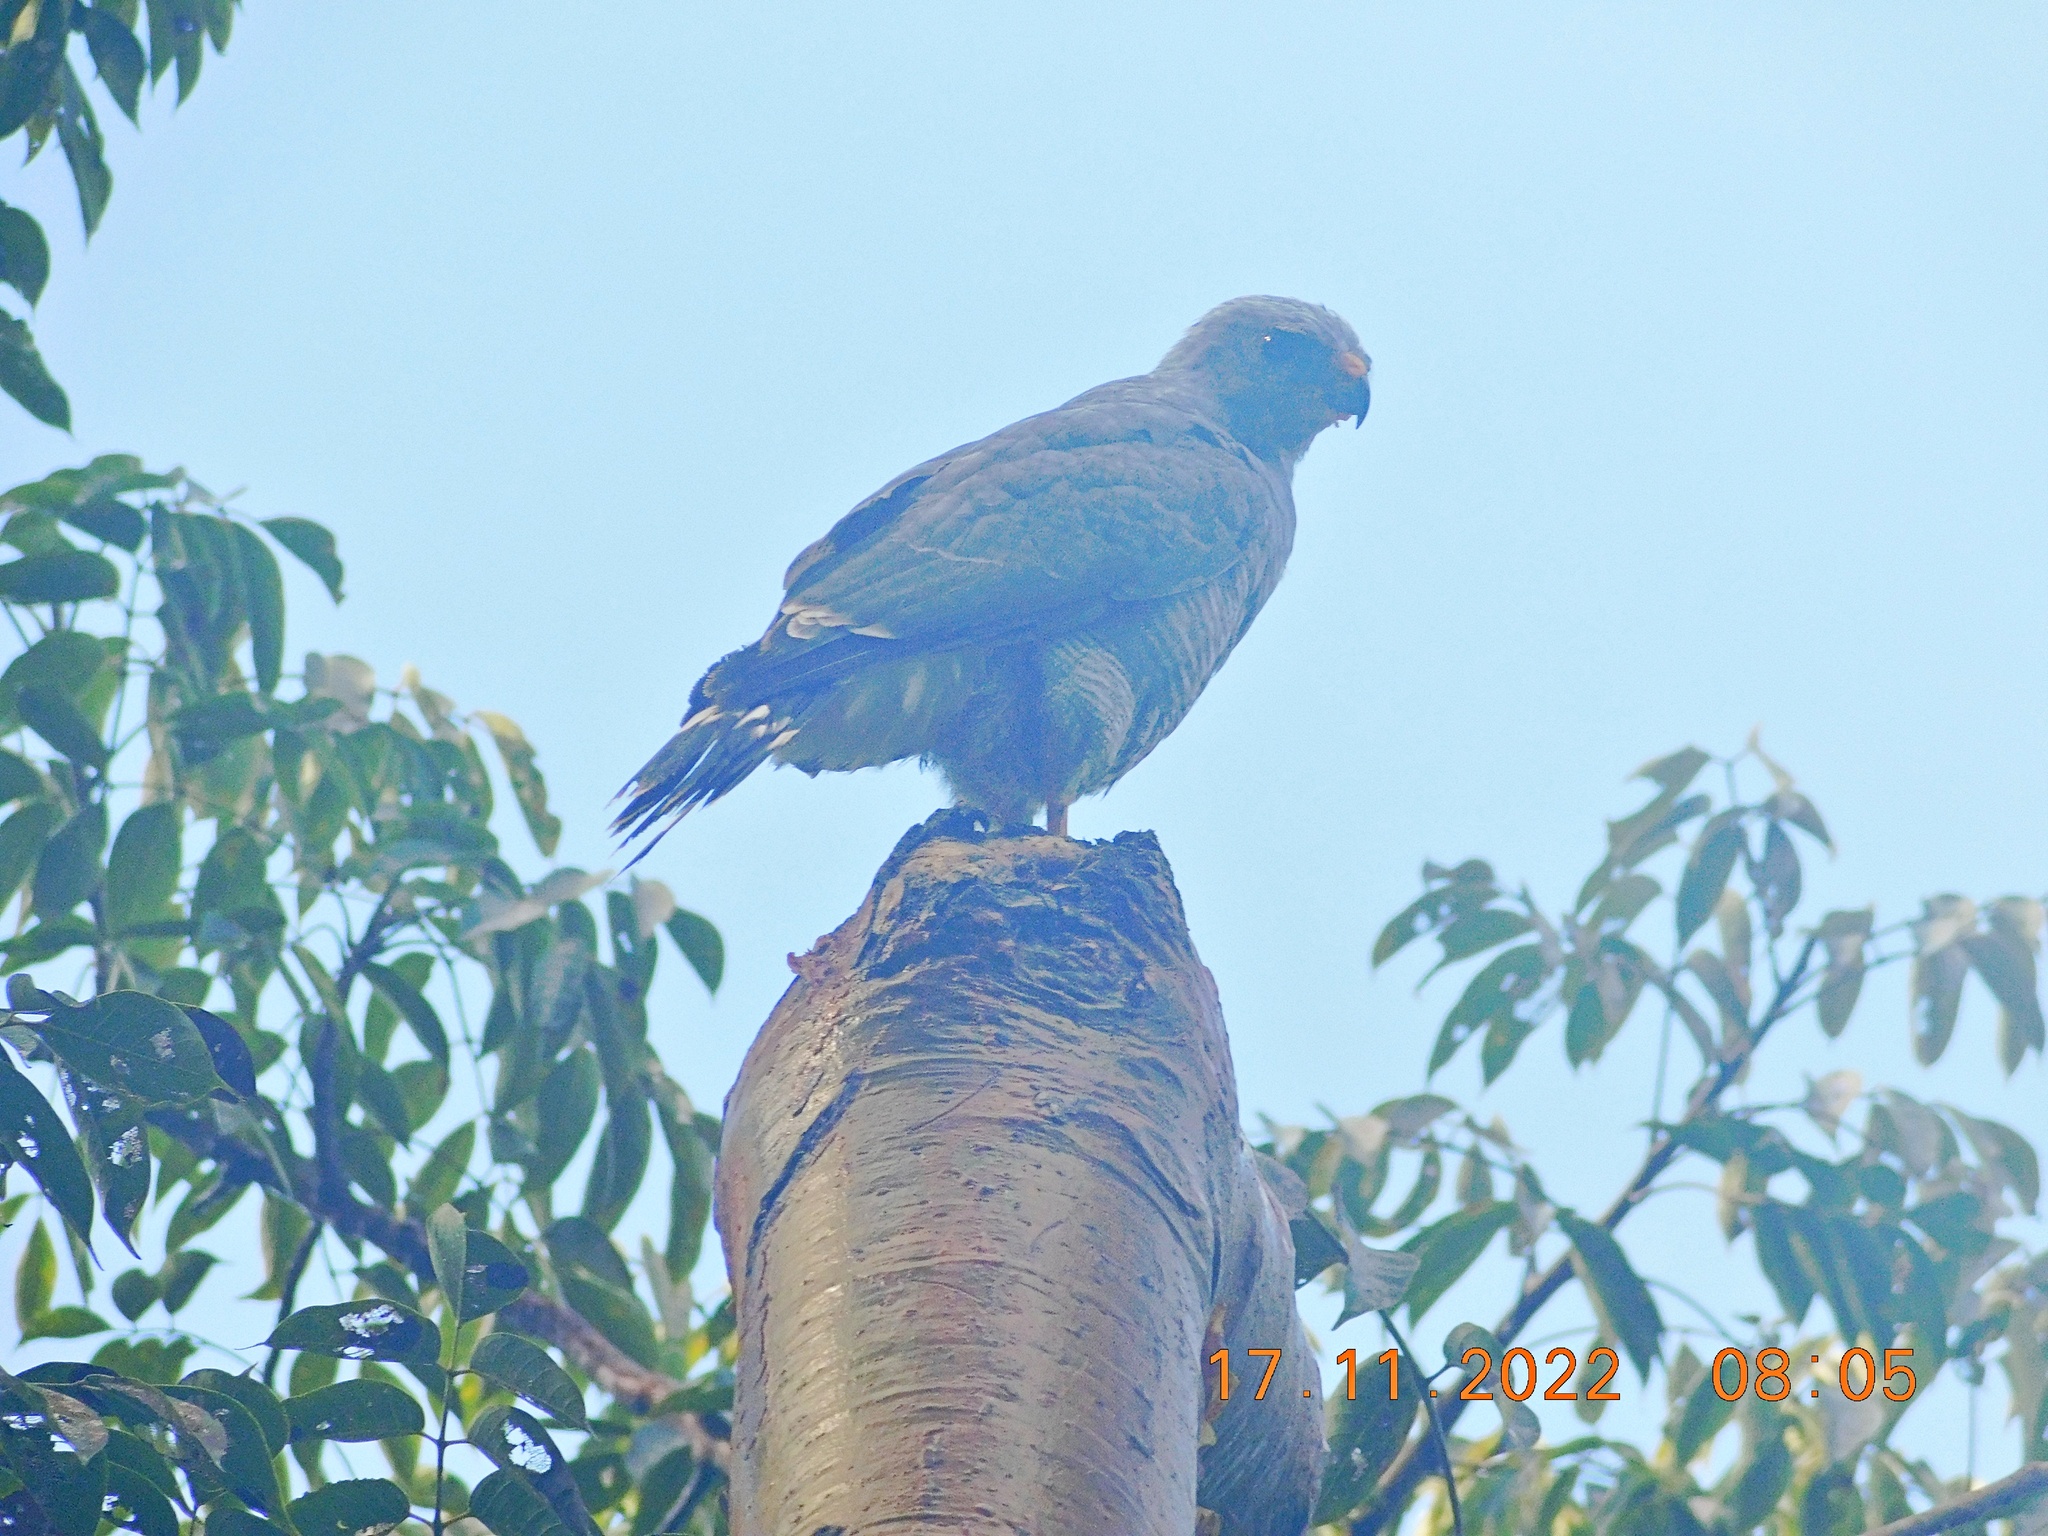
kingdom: Animalia
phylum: Chordata
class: Aves
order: Accipitriformes
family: Accipitridae
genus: Buteo
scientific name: Buteo nitidus
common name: Grey-lined hawk
